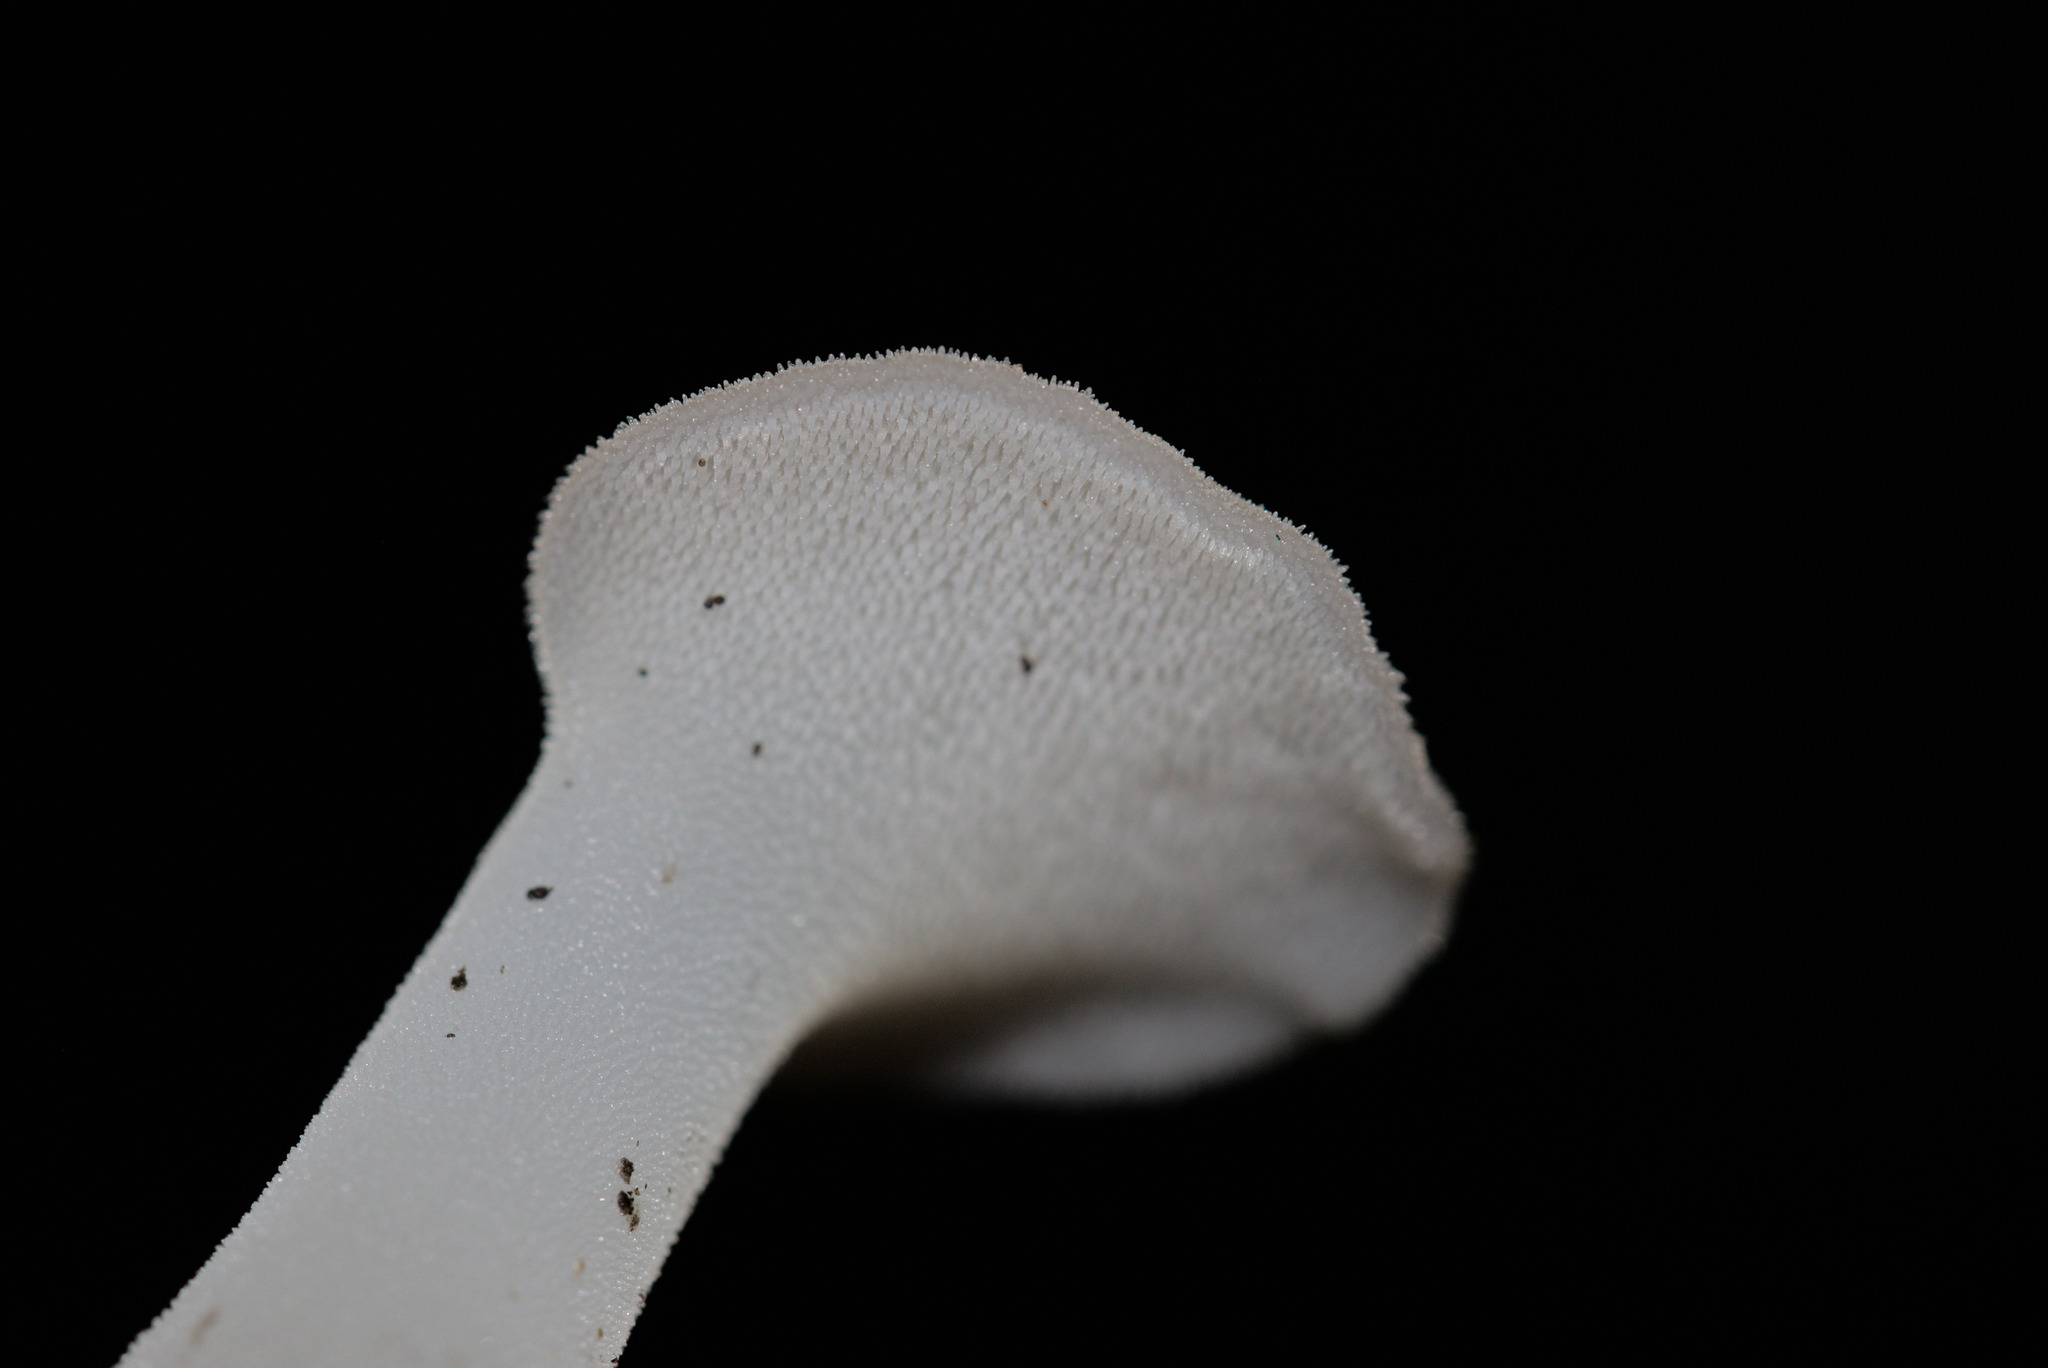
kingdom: Fungi
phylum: Basidiomycota
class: Agaricomycetes
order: Auriculariales
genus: Pseudohydnum
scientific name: Pseudohydnum gelatinosum
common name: Jelly tongue
